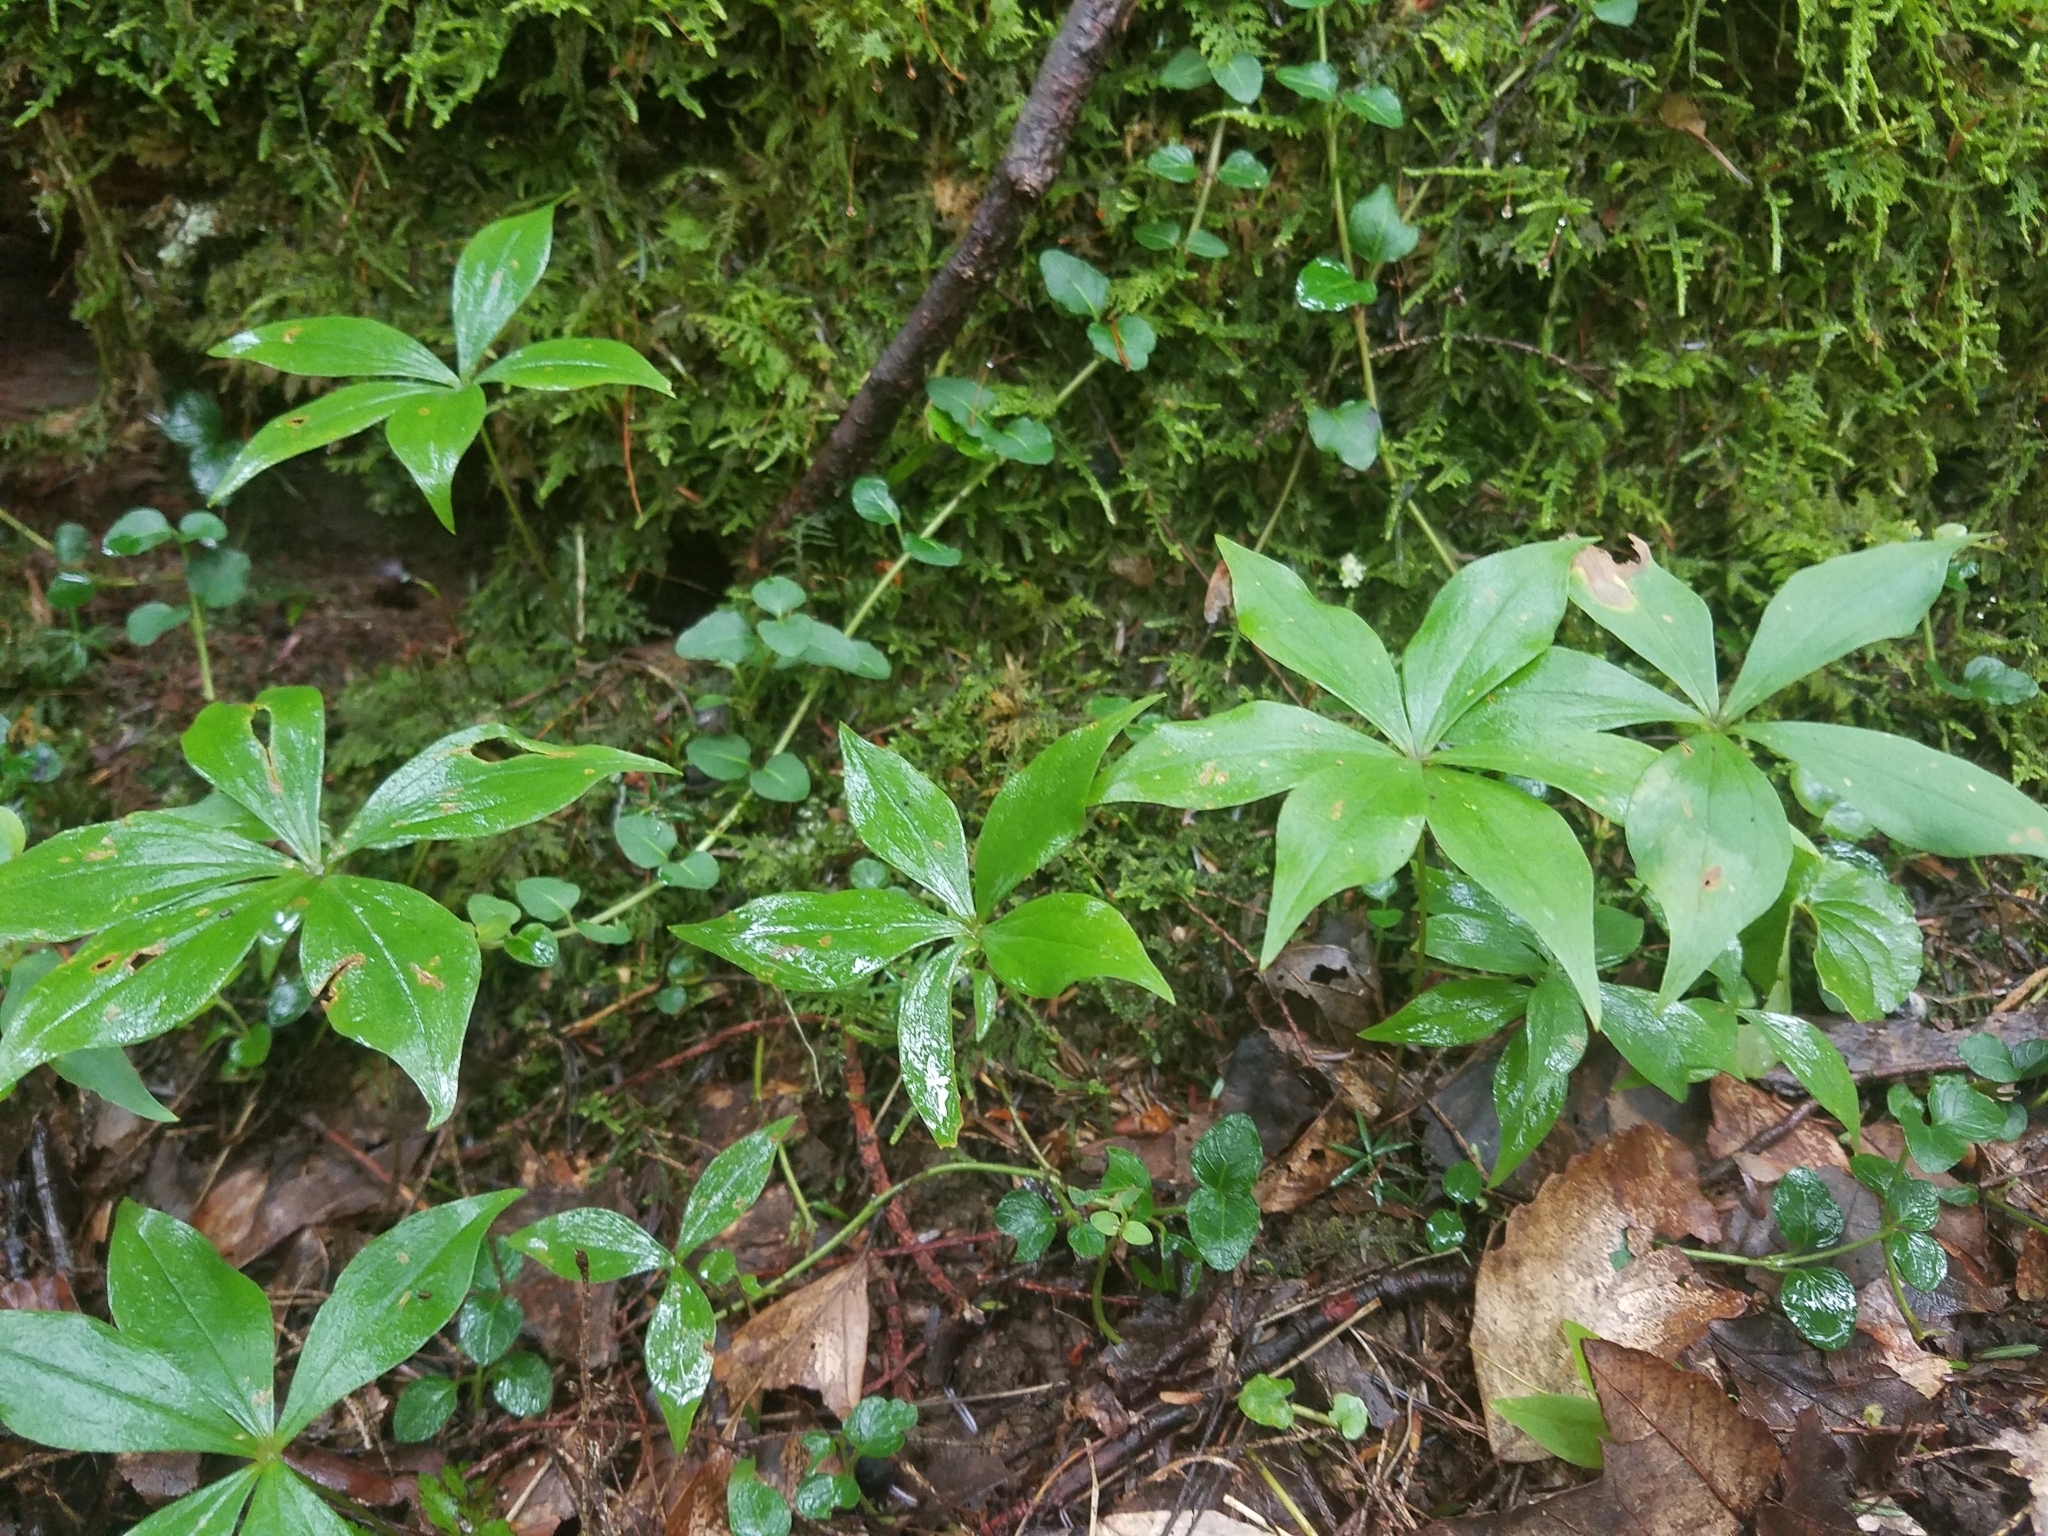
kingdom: Plantae
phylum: Tracheophyta
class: Liliopsida
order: Liliales
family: Liliaceae
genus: Medeola
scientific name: Medeola virginiana
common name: Indian cucumber-root
